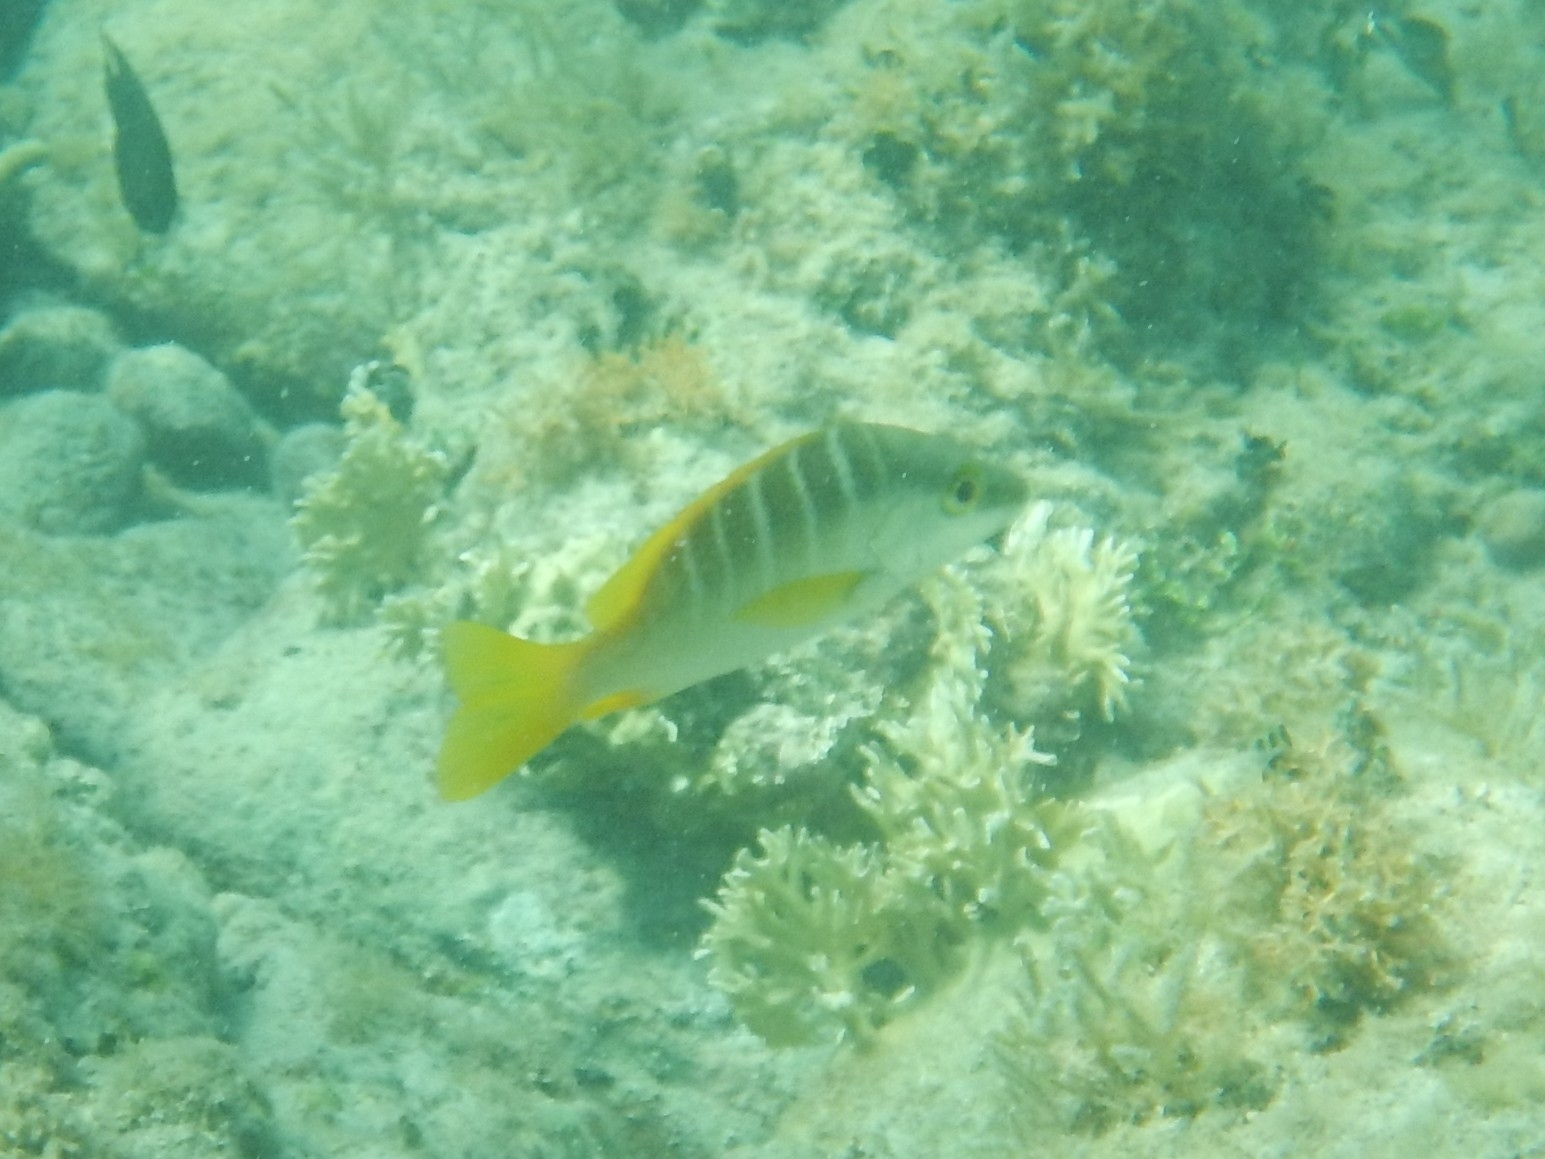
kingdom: Animalia
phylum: Chordata
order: Perciformes
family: Lutjanidae
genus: Lutjanus
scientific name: Lutjanus apodus
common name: Schoolmaster
